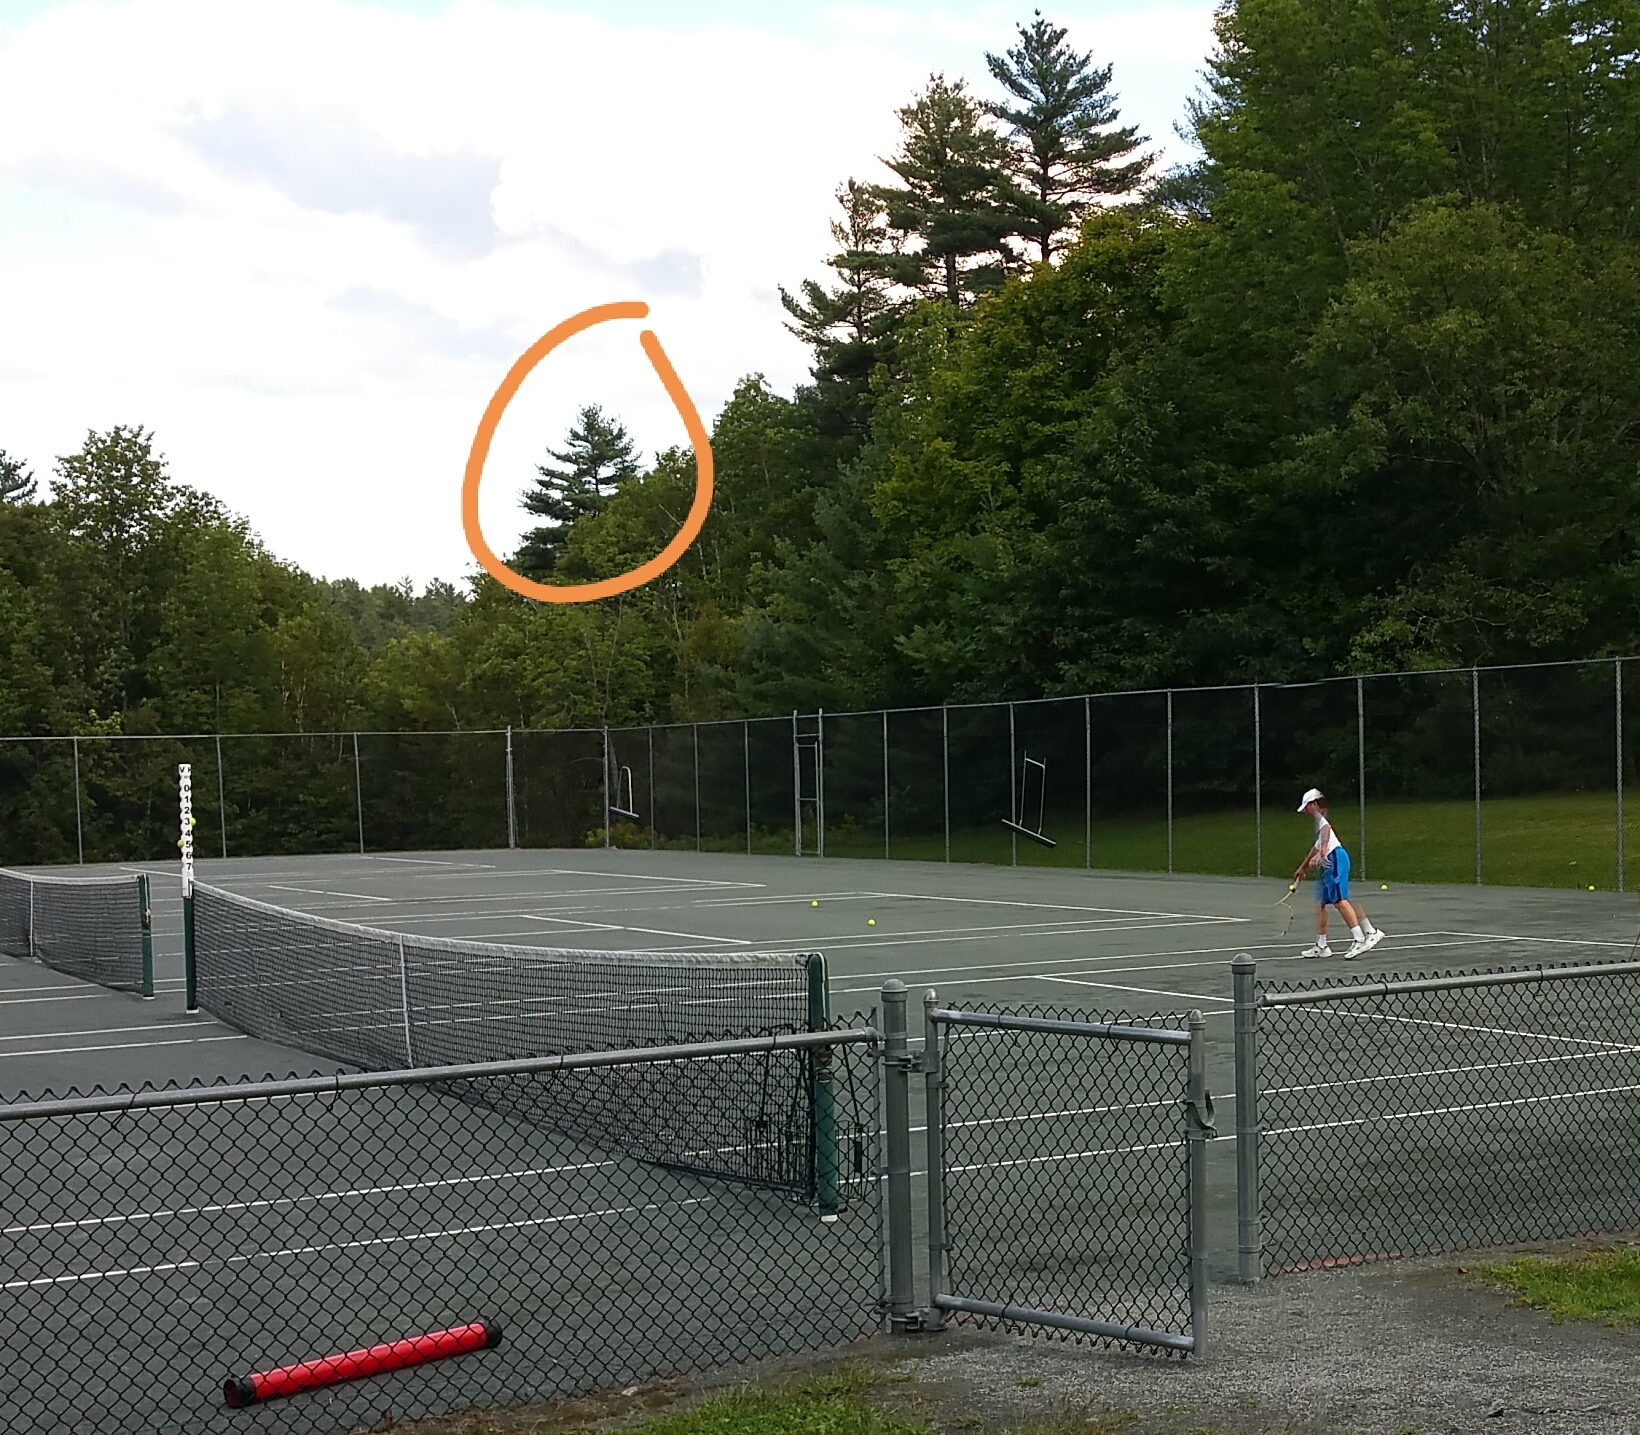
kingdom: Plantae
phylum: Tracheophyta
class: Pinopsida
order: Pinales
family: Pinaceae
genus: Pinus
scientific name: Pinus strobus
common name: Weymouth pine
